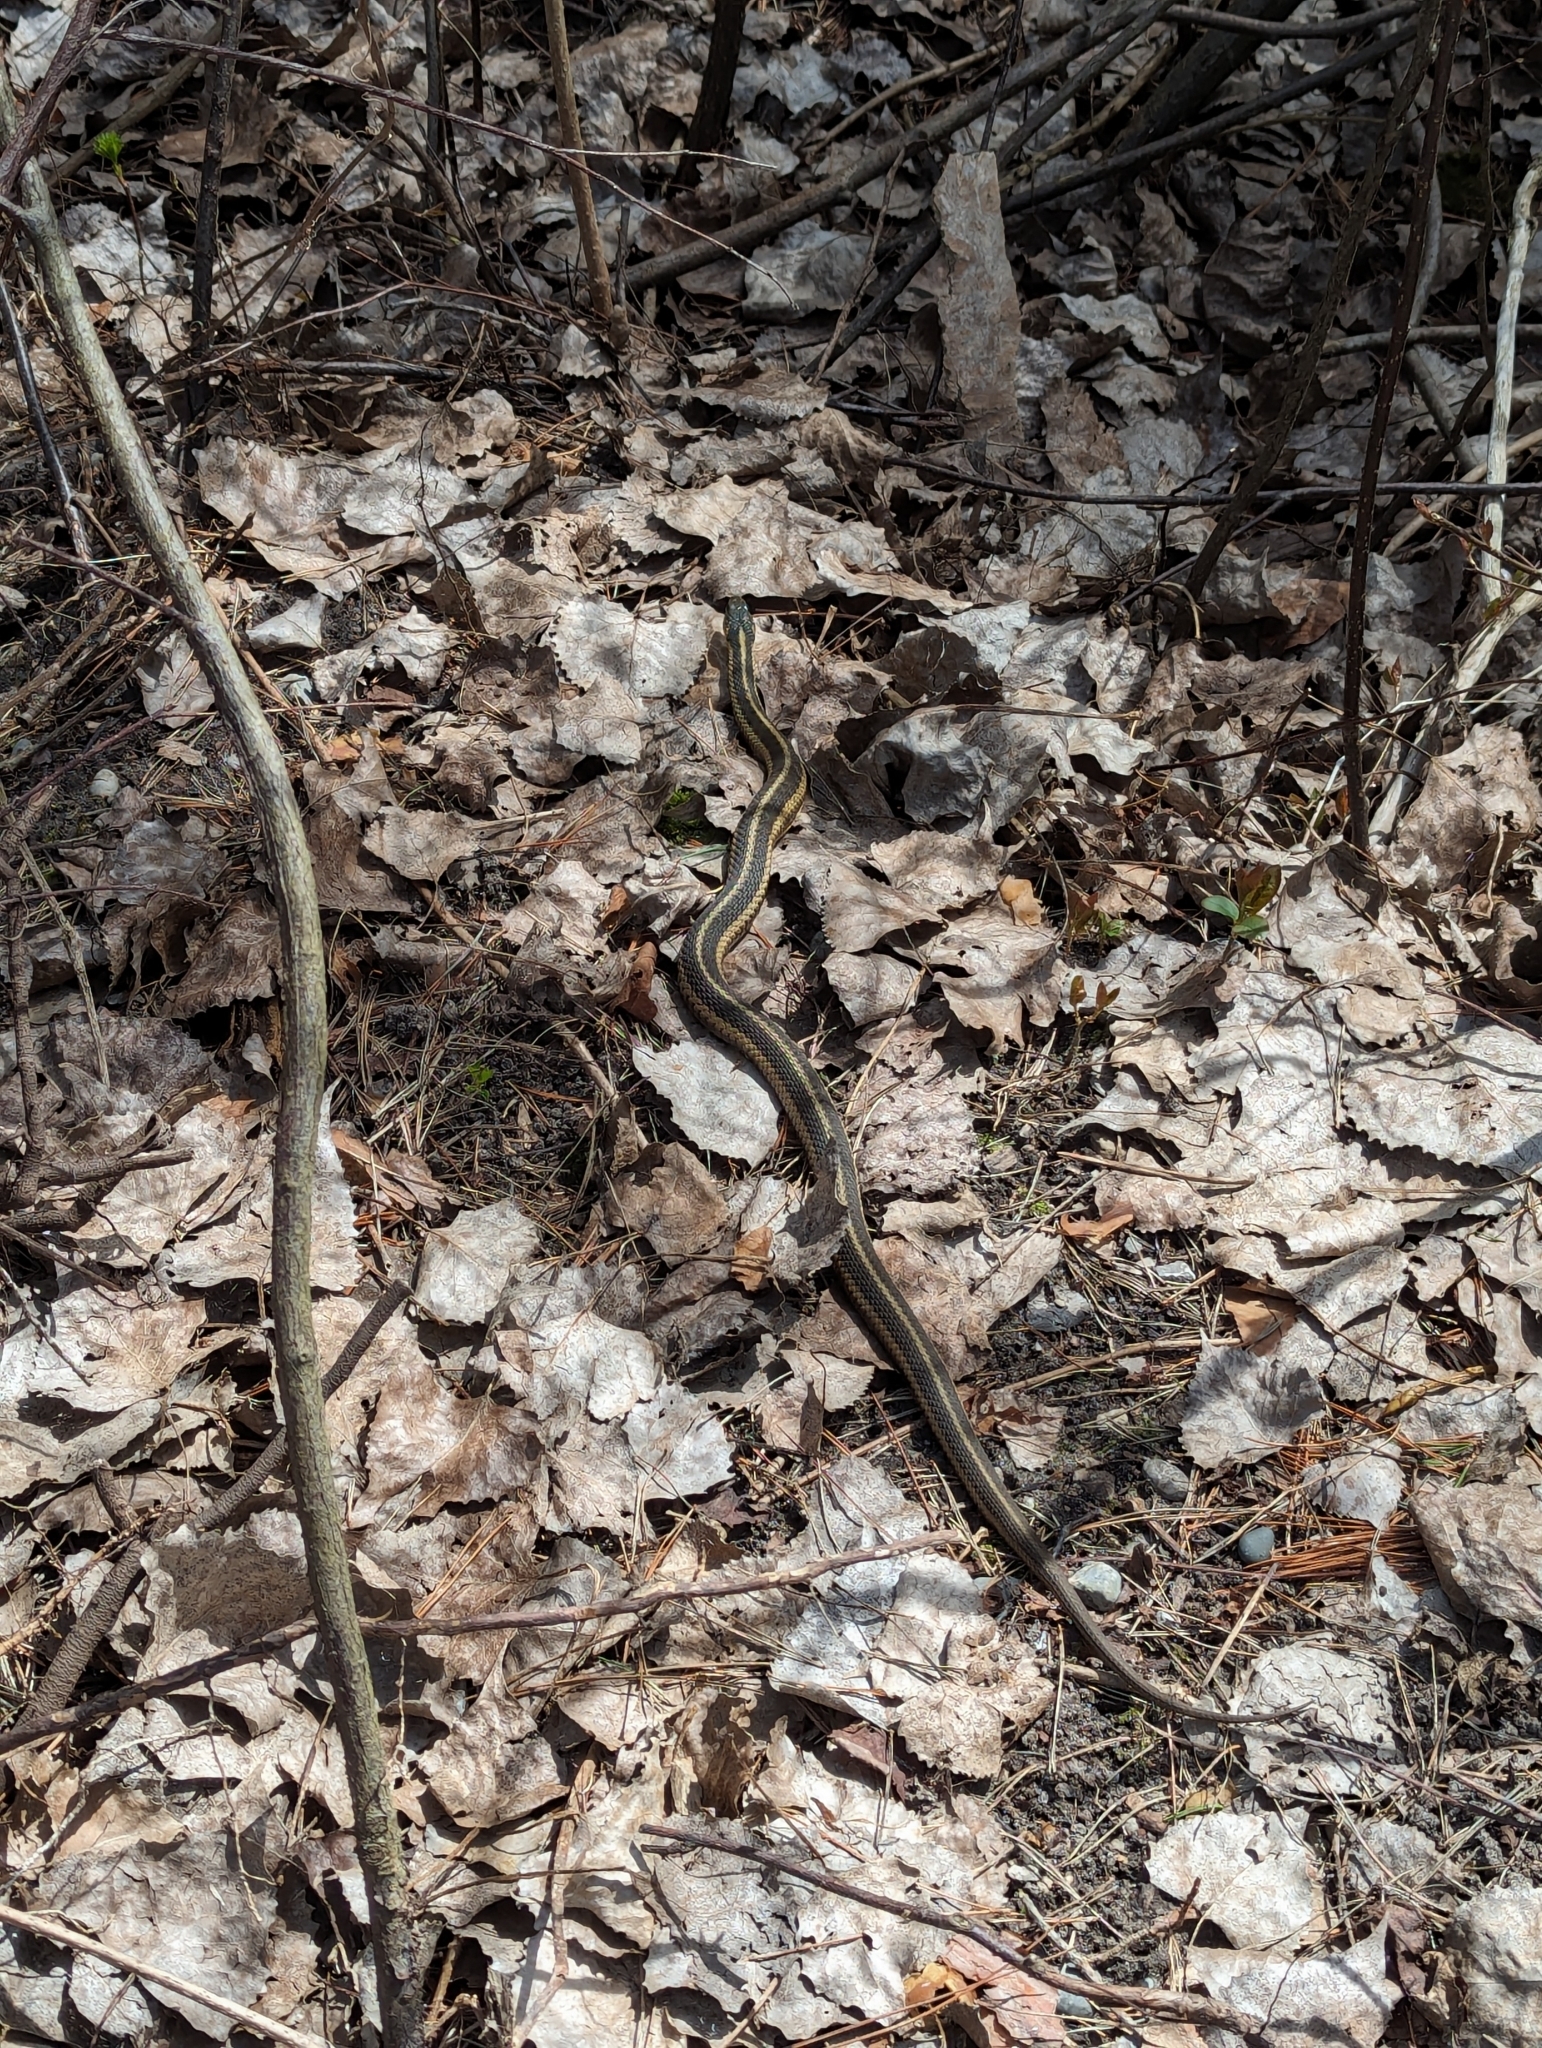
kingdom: Animalia
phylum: Chordata
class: Squamata
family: Colubridae
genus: Thamnophis
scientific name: Thamnophis sirtalis
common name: Common garter snake
